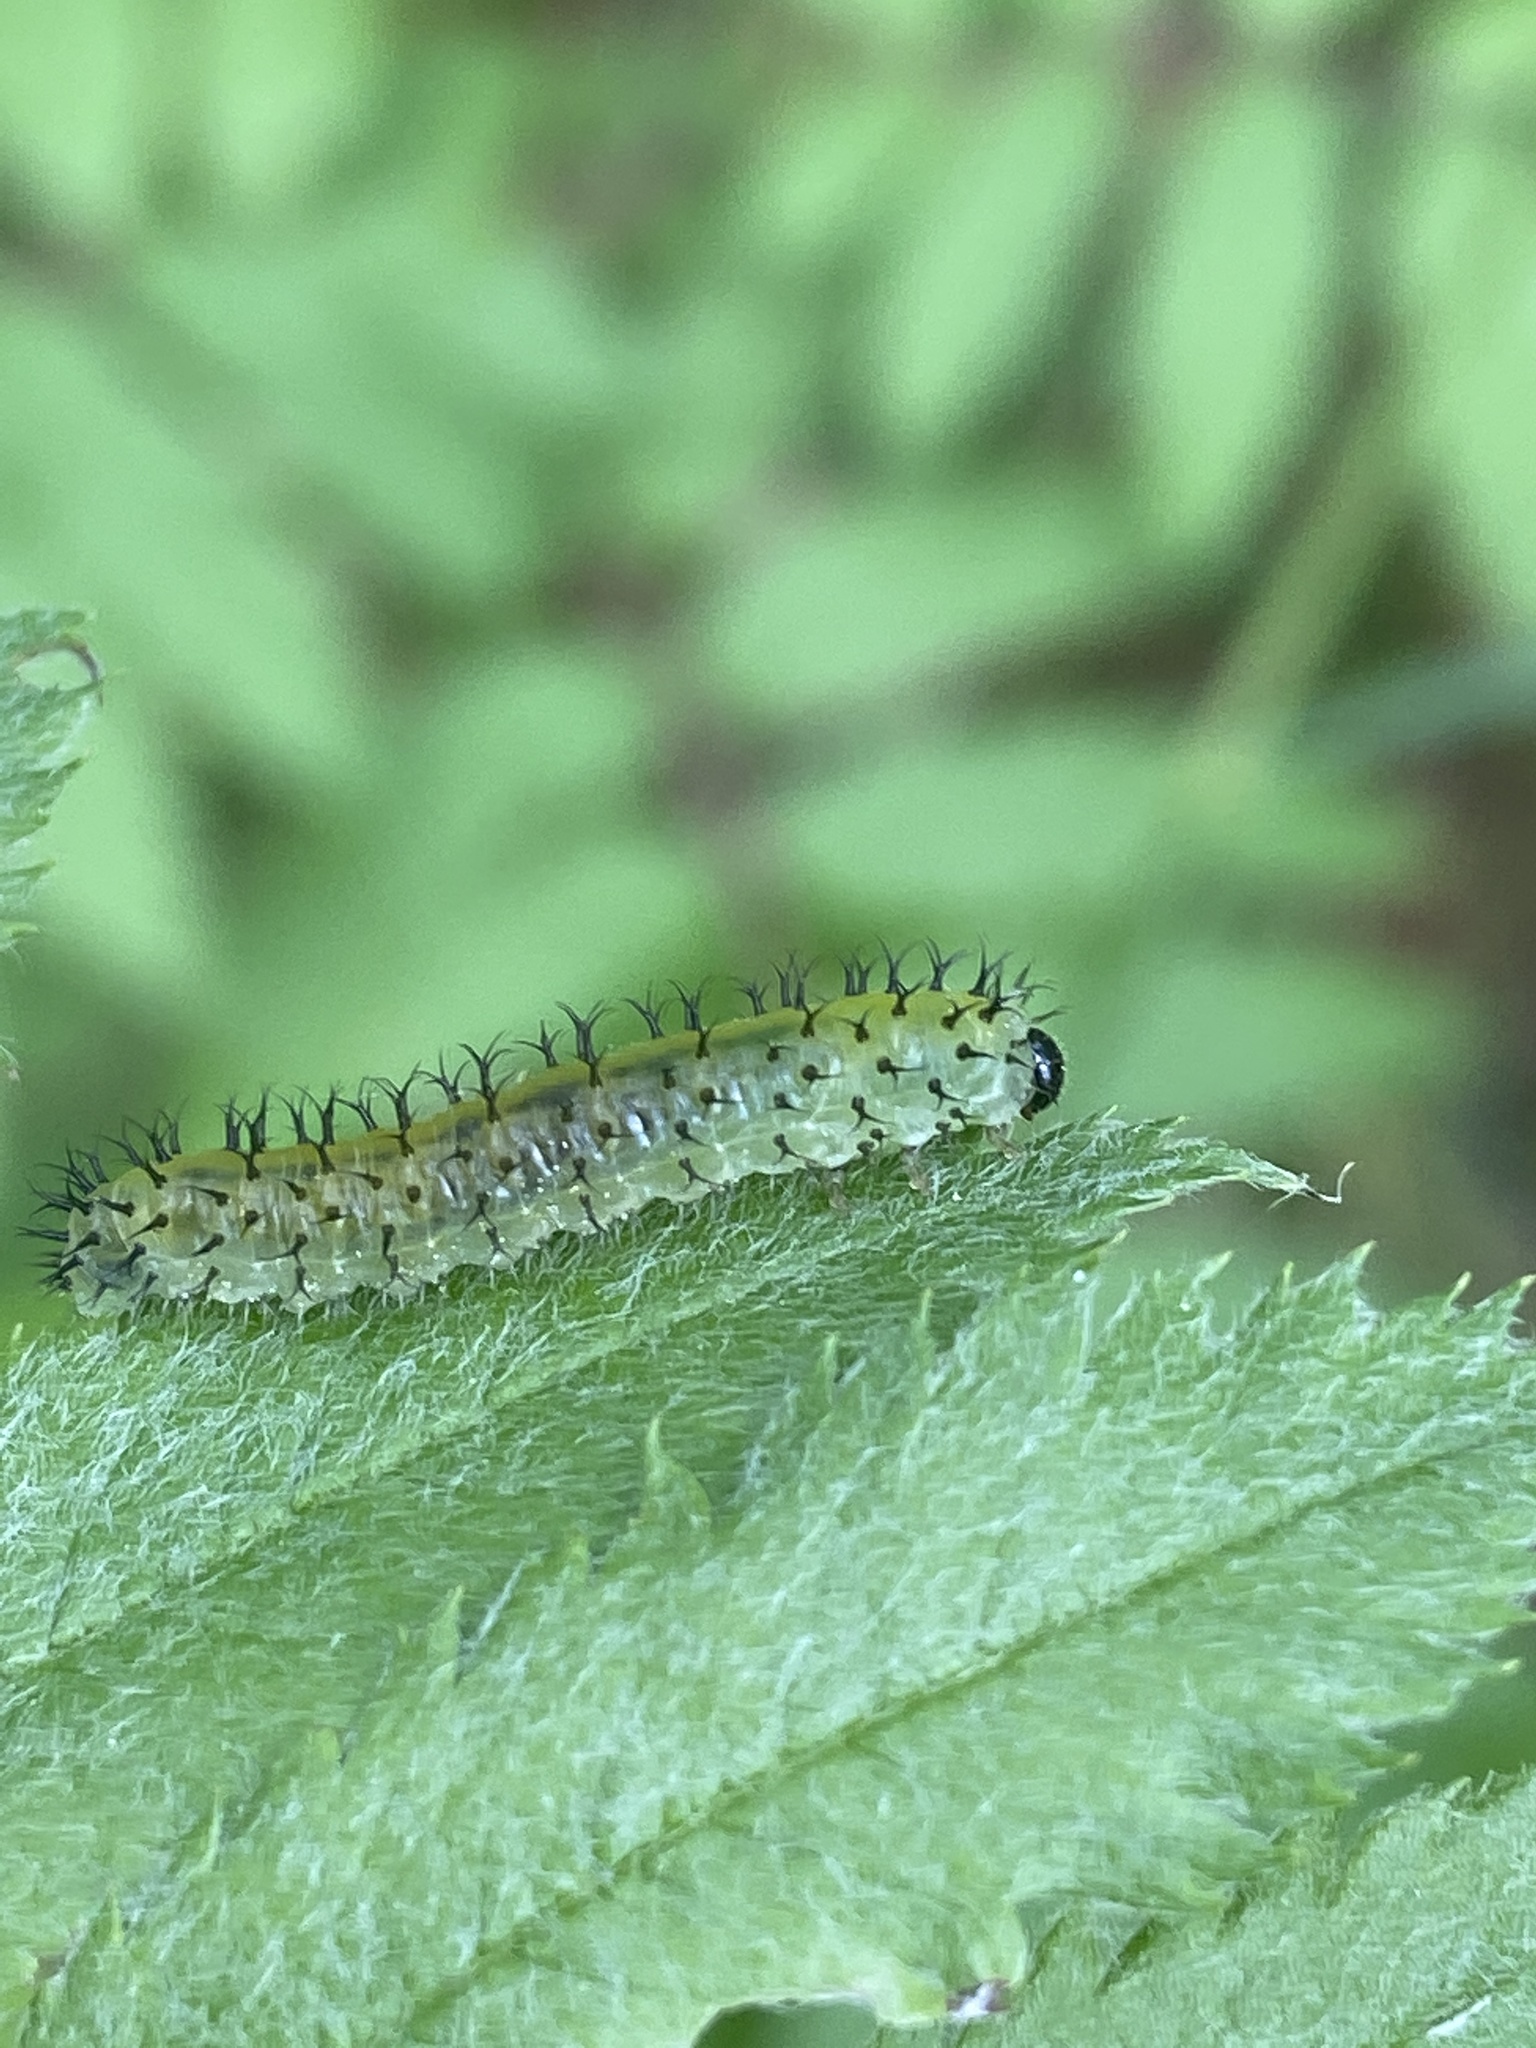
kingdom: Animalia
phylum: Arthropoda
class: Insecta
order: Hymenoptera
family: Tenthredinidae
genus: Periclista
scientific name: Periclista lineolata
